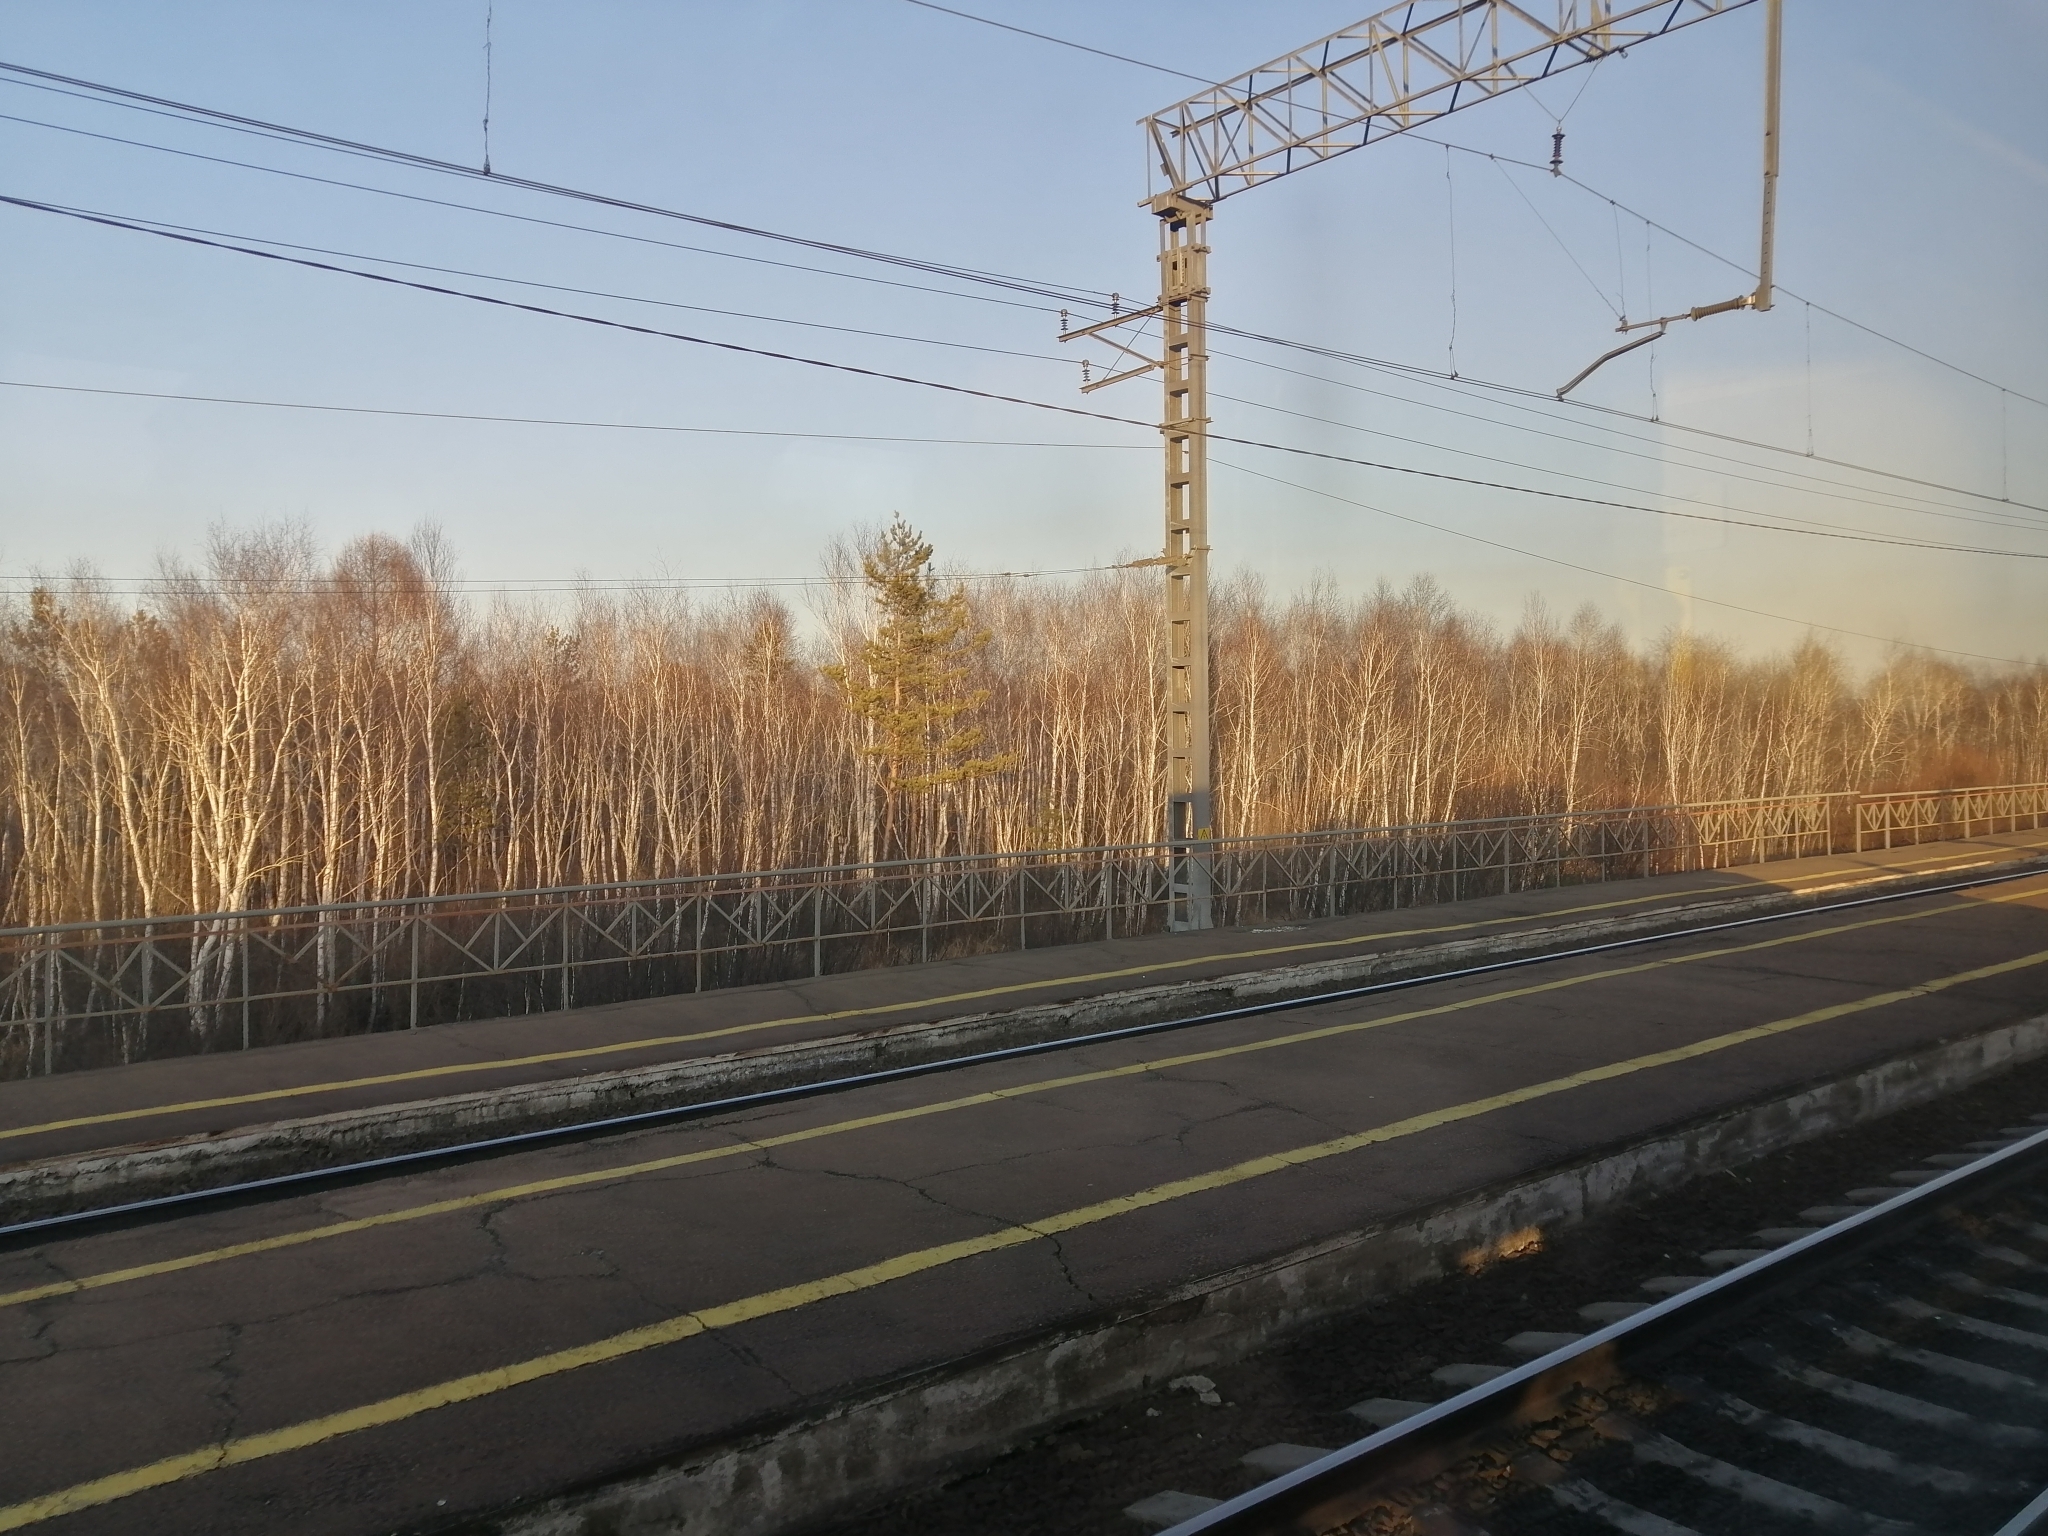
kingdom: Plantae
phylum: Tracheophyta
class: Pinopsida
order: Pinales
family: Pinaceae
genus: Pinus
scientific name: Pinus sylvestris
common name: Scots pine
